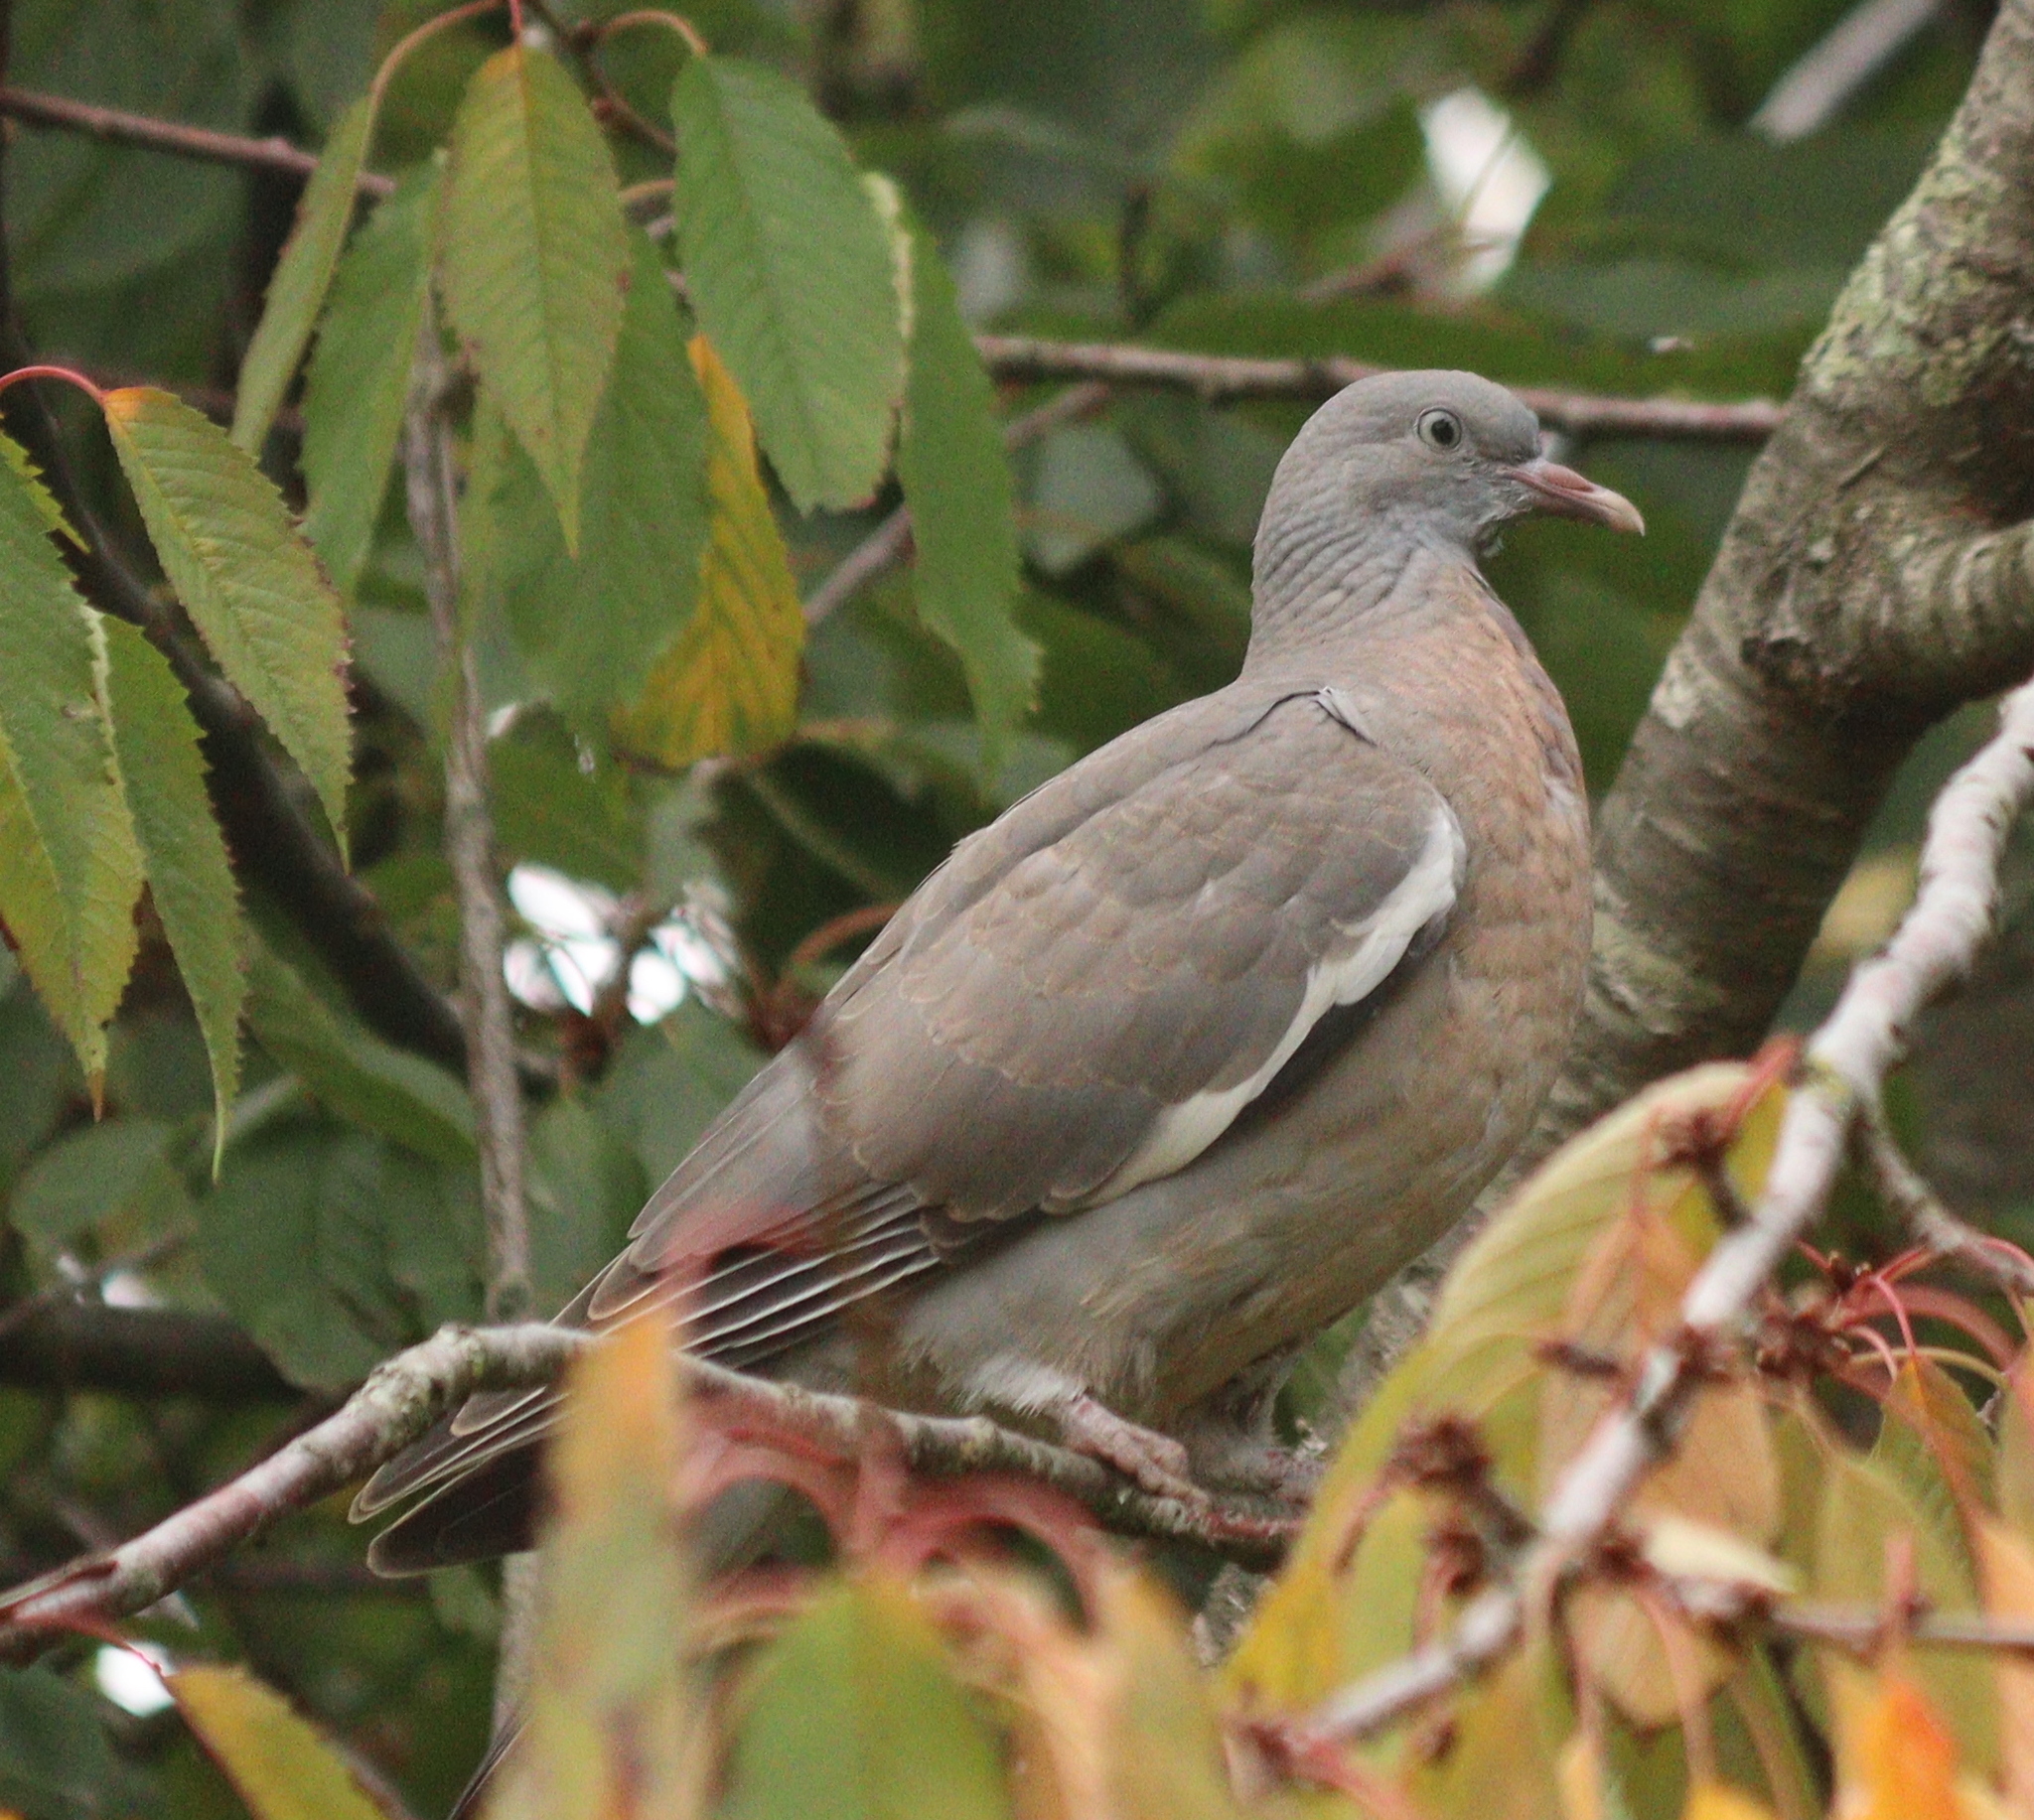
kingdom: Animalia
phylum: Chordata
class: Aves
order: Columbiformes
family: Columbidae
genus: Columba
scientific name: Columba palumbus
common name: Common wood pigeon
